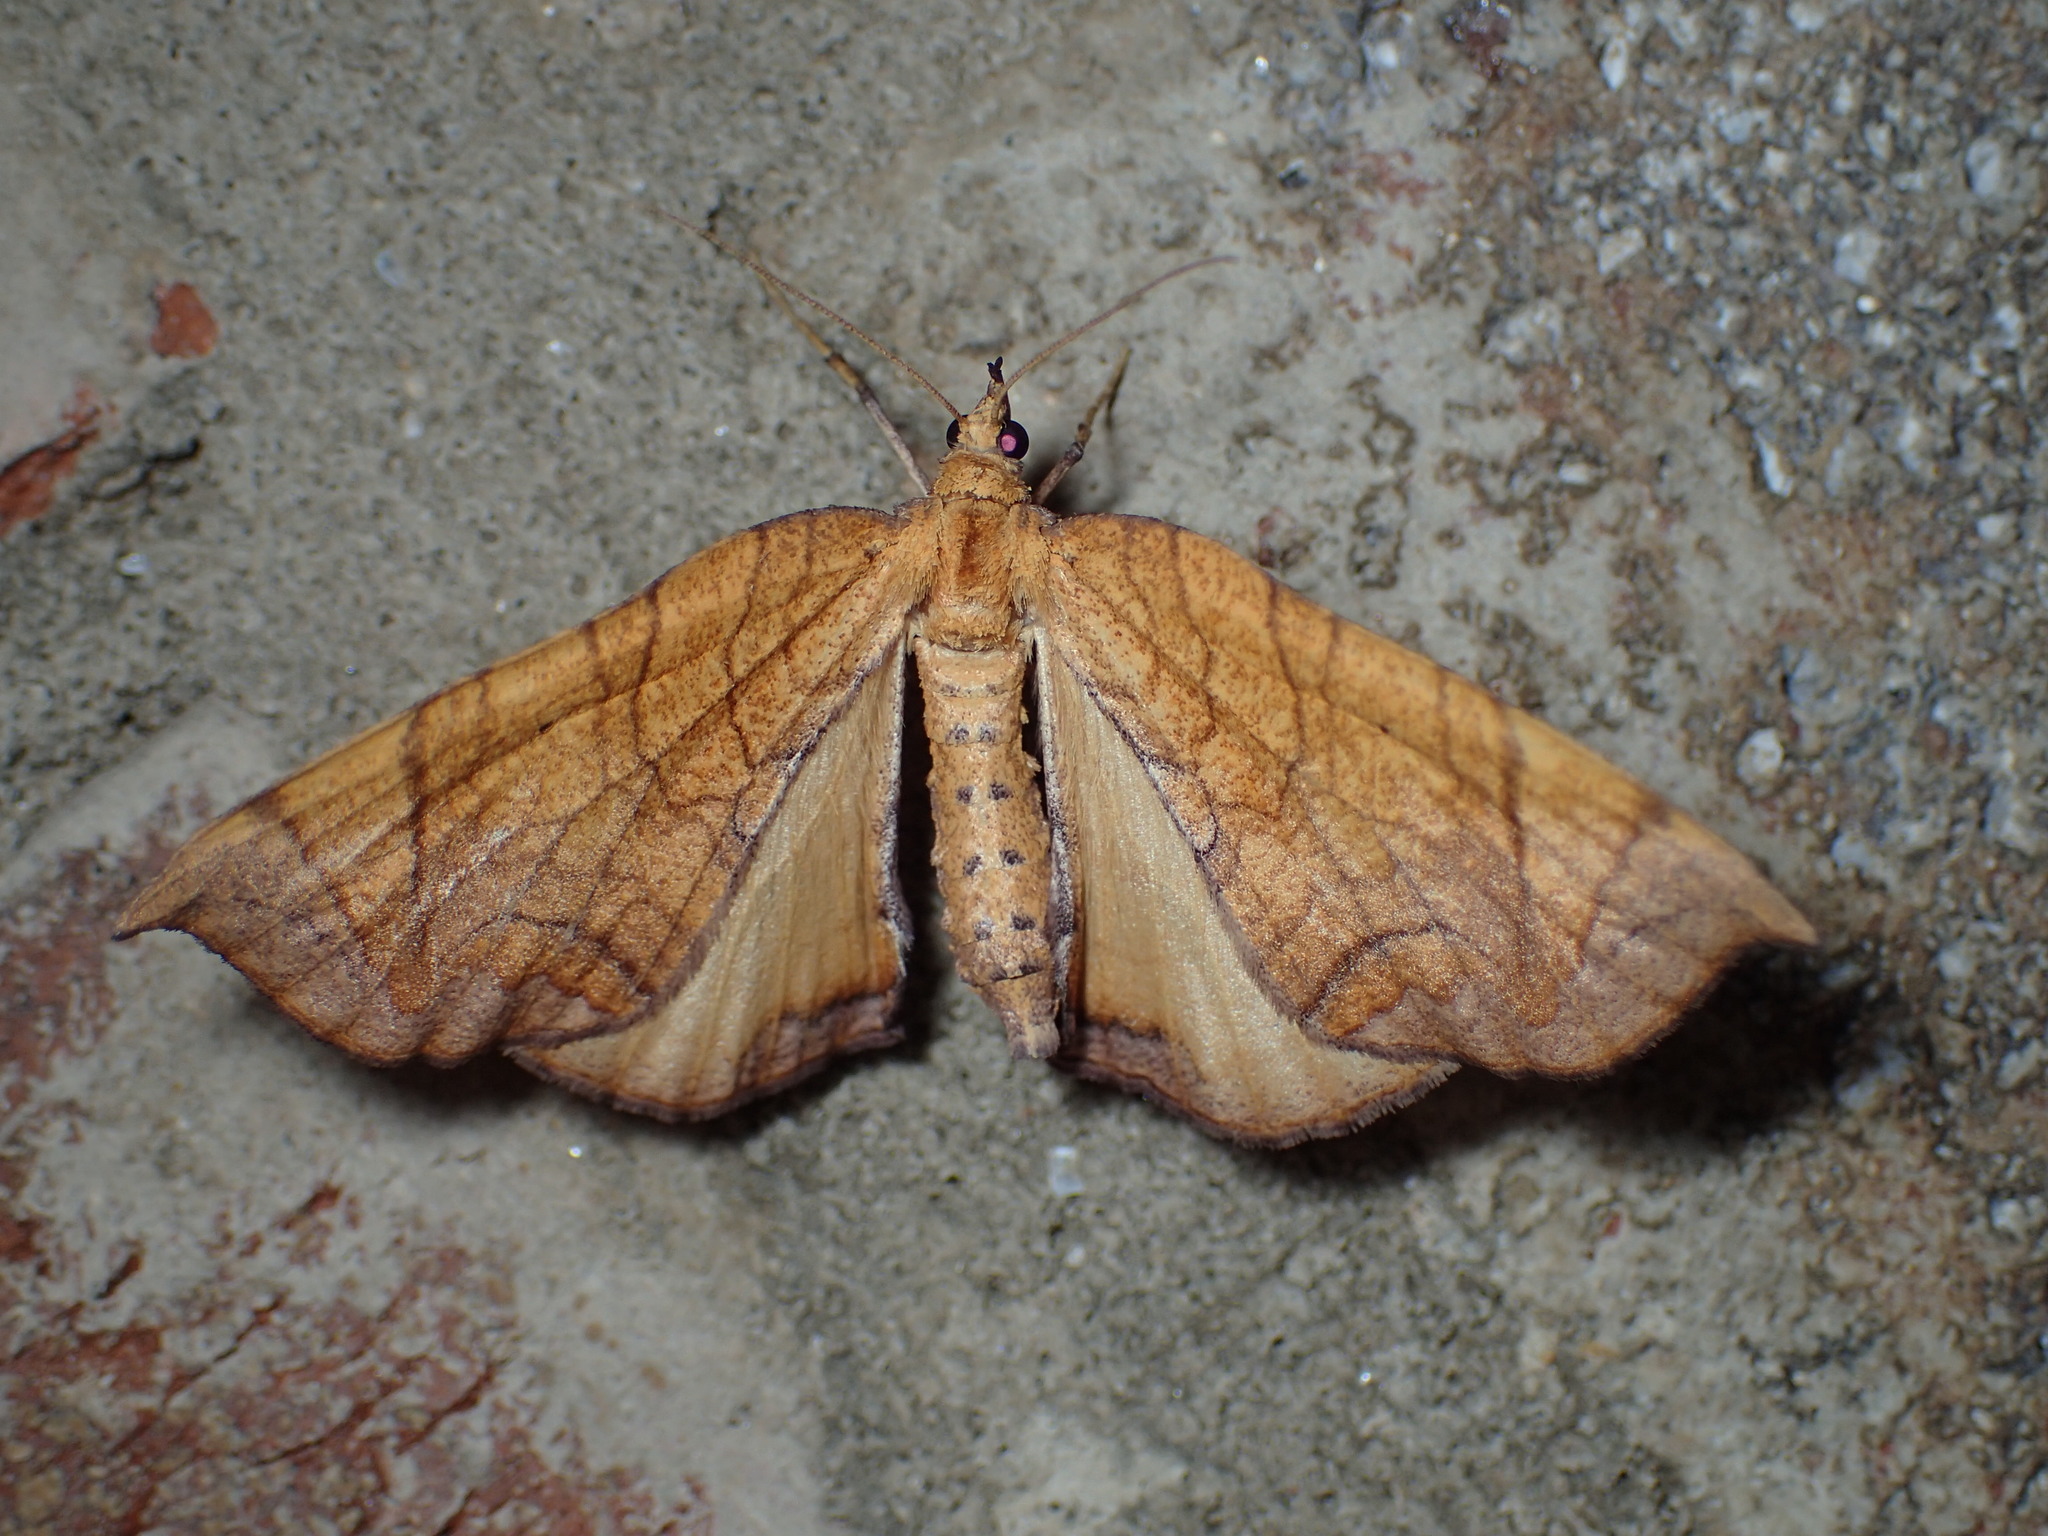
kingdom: Animalia
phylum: Arthropoda
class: Insecta
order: Lepidoptera
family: Geometridae
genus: Eulithis
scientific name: Eulithis
